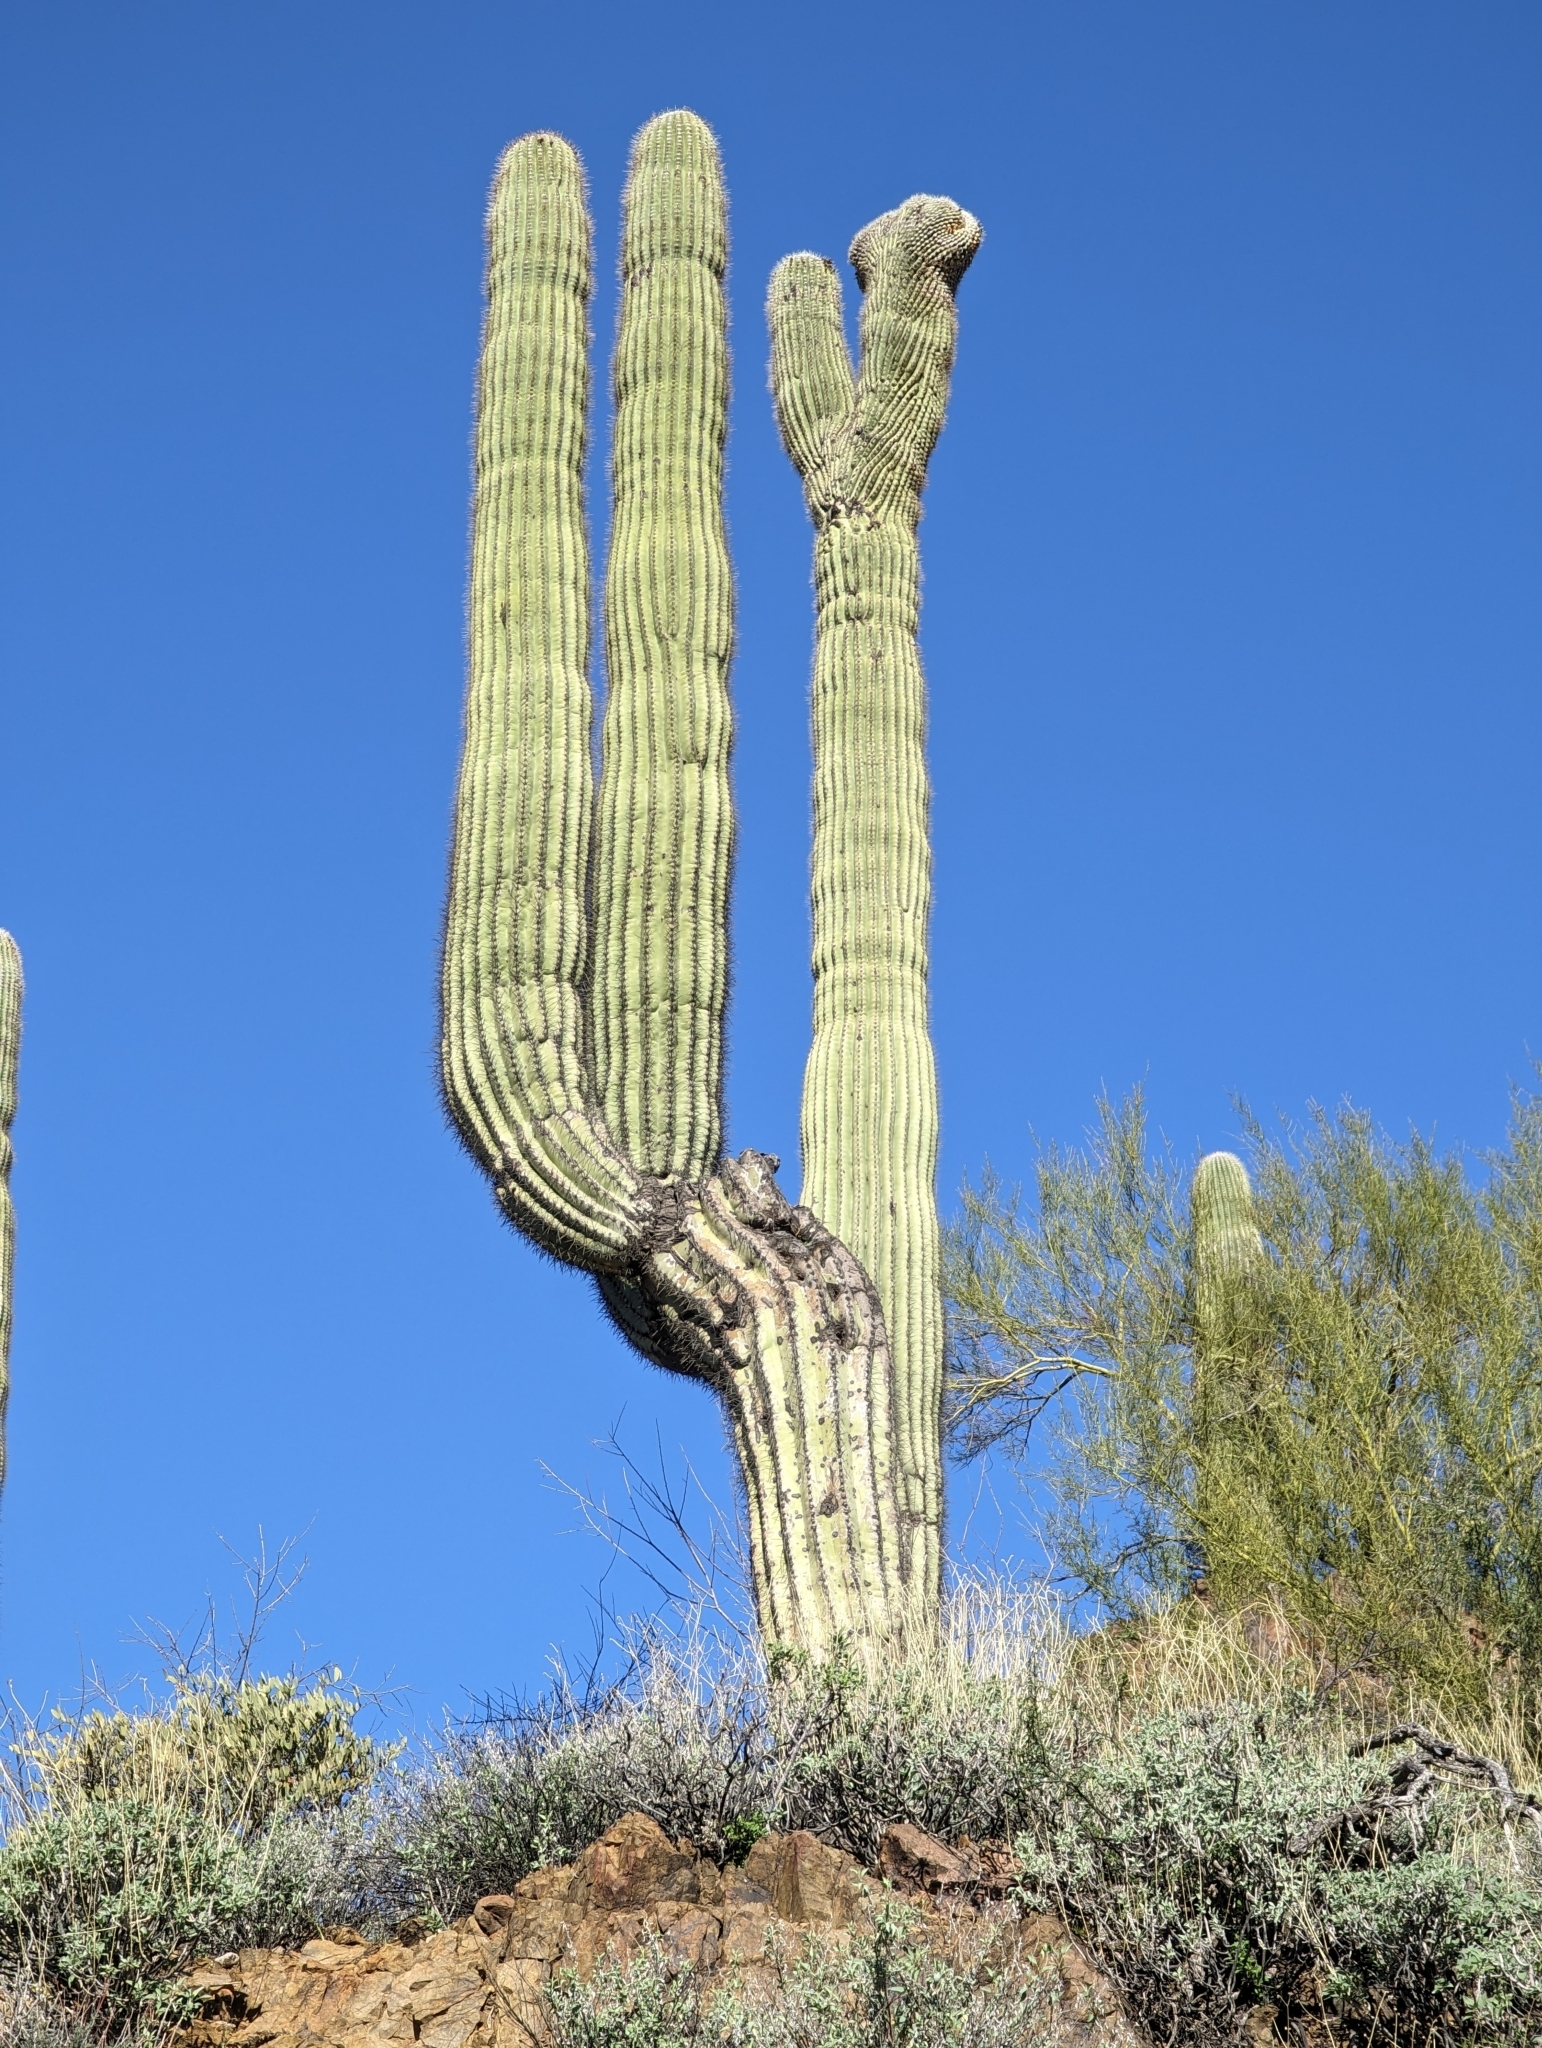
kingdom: Plantae
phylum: Tracheophyta
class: Magnoliopsida
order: Caryophyllales
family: Cactaceae
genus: Carnegiea
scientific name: Carnegiea gigantea
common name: Saguaro
